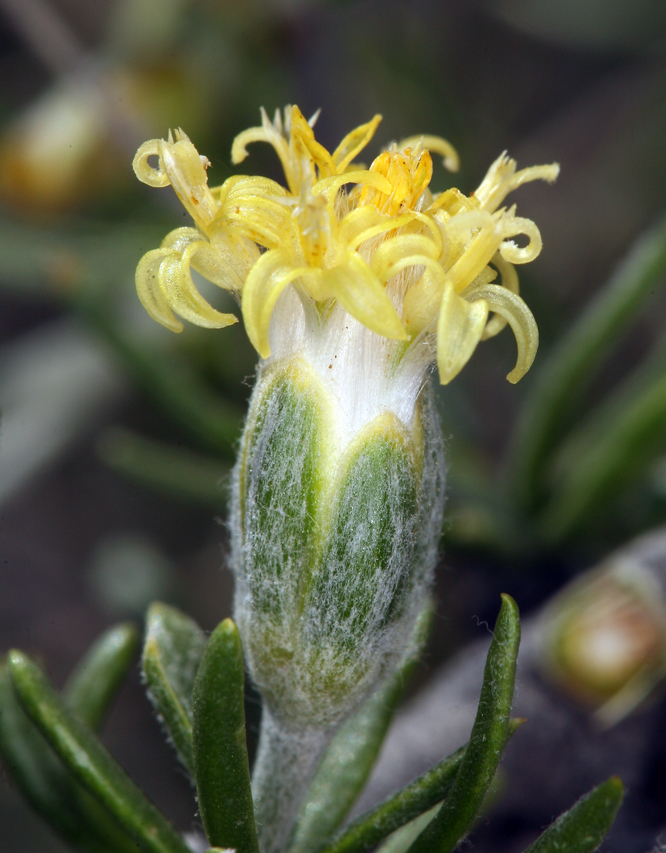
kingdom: Plantae
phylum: Tracheophyta
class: Magnoliopsida
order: Asterales
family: Asteraceae
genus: Tetradymia
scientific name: Tetradymia axillaris
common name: Long-spine horsebrush
